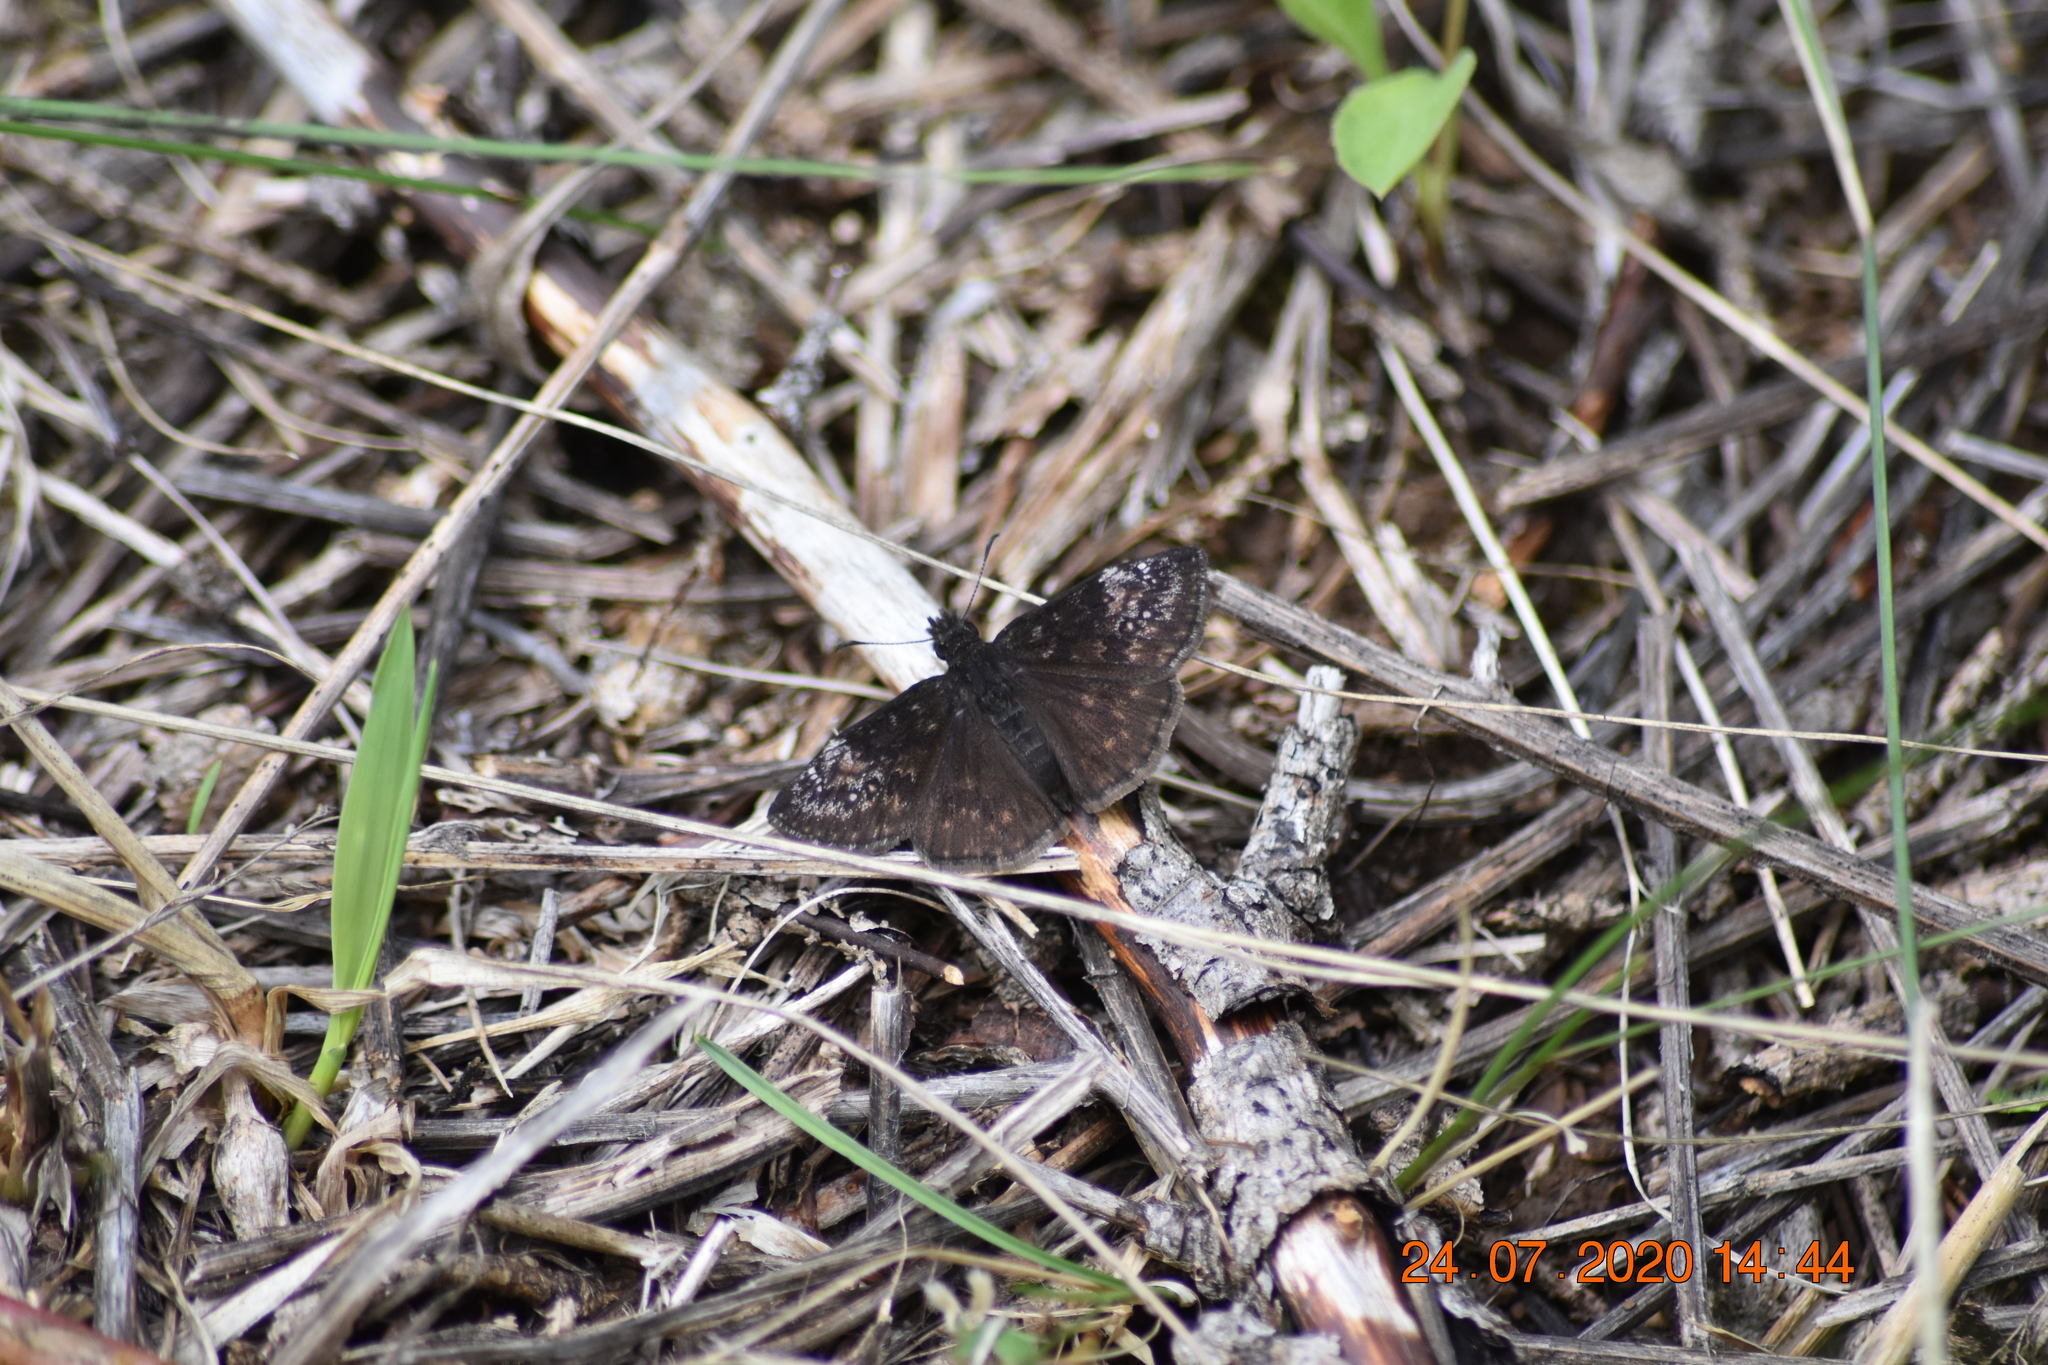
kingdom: Animalia
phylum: Arthropoda
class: Insecta
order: Lepidoptera
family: Hesperiidae
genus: Erynnis
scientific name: Erynnis lucilius
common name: Columbine duskywing
